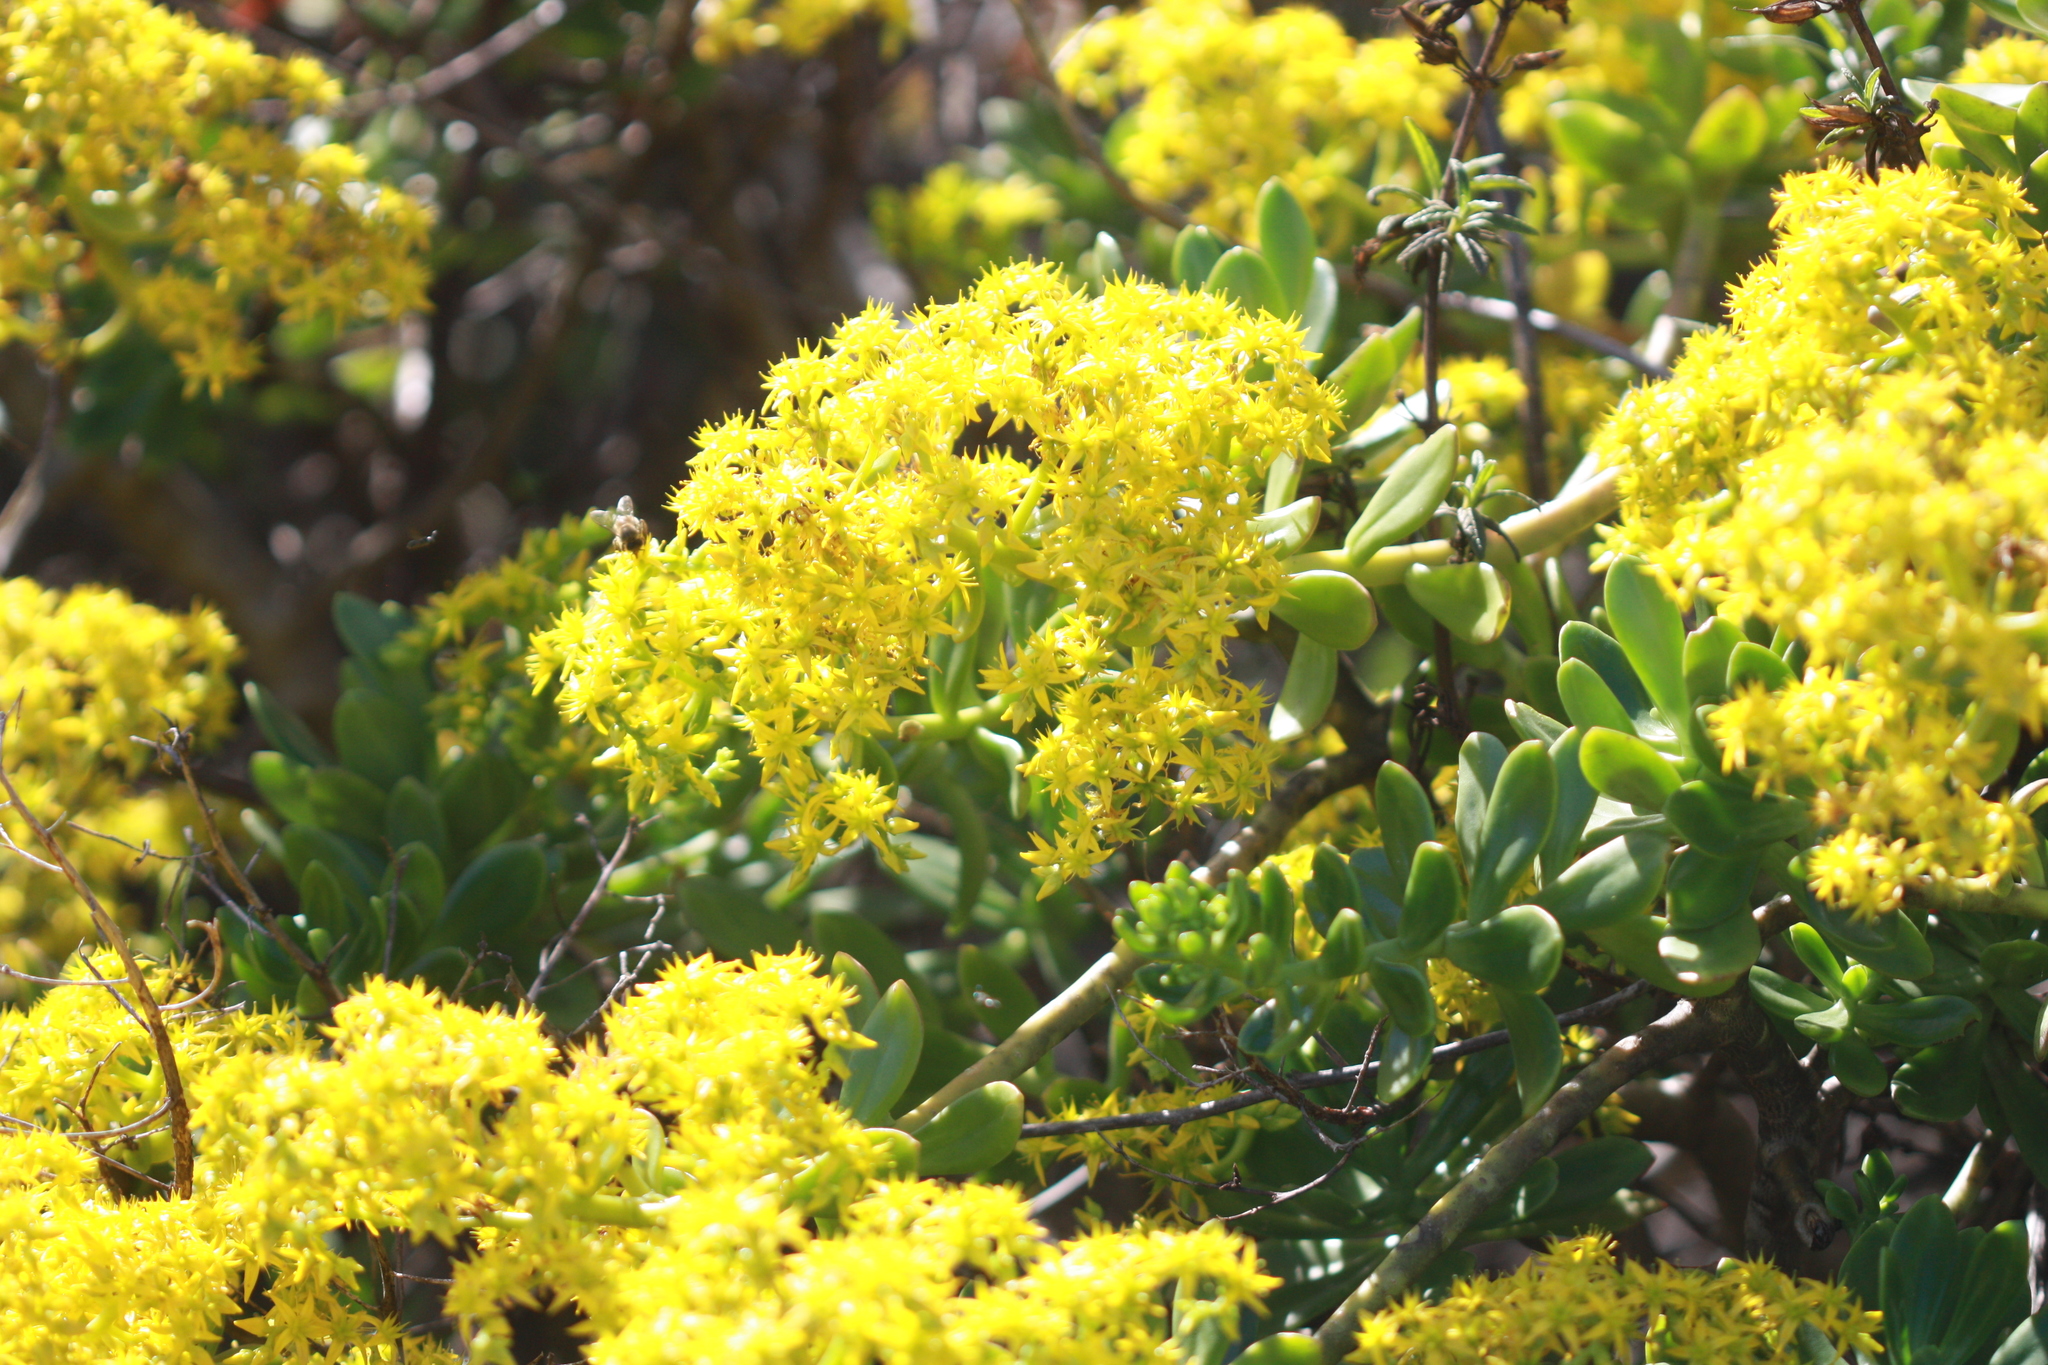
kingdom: Plantae
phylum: Tracheophyta
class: Magnoliopsida
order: Saxifragales
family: Crassulaceae
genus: Sedum
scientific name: Sedum praealtum
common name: Greater mexican-stonecrop
